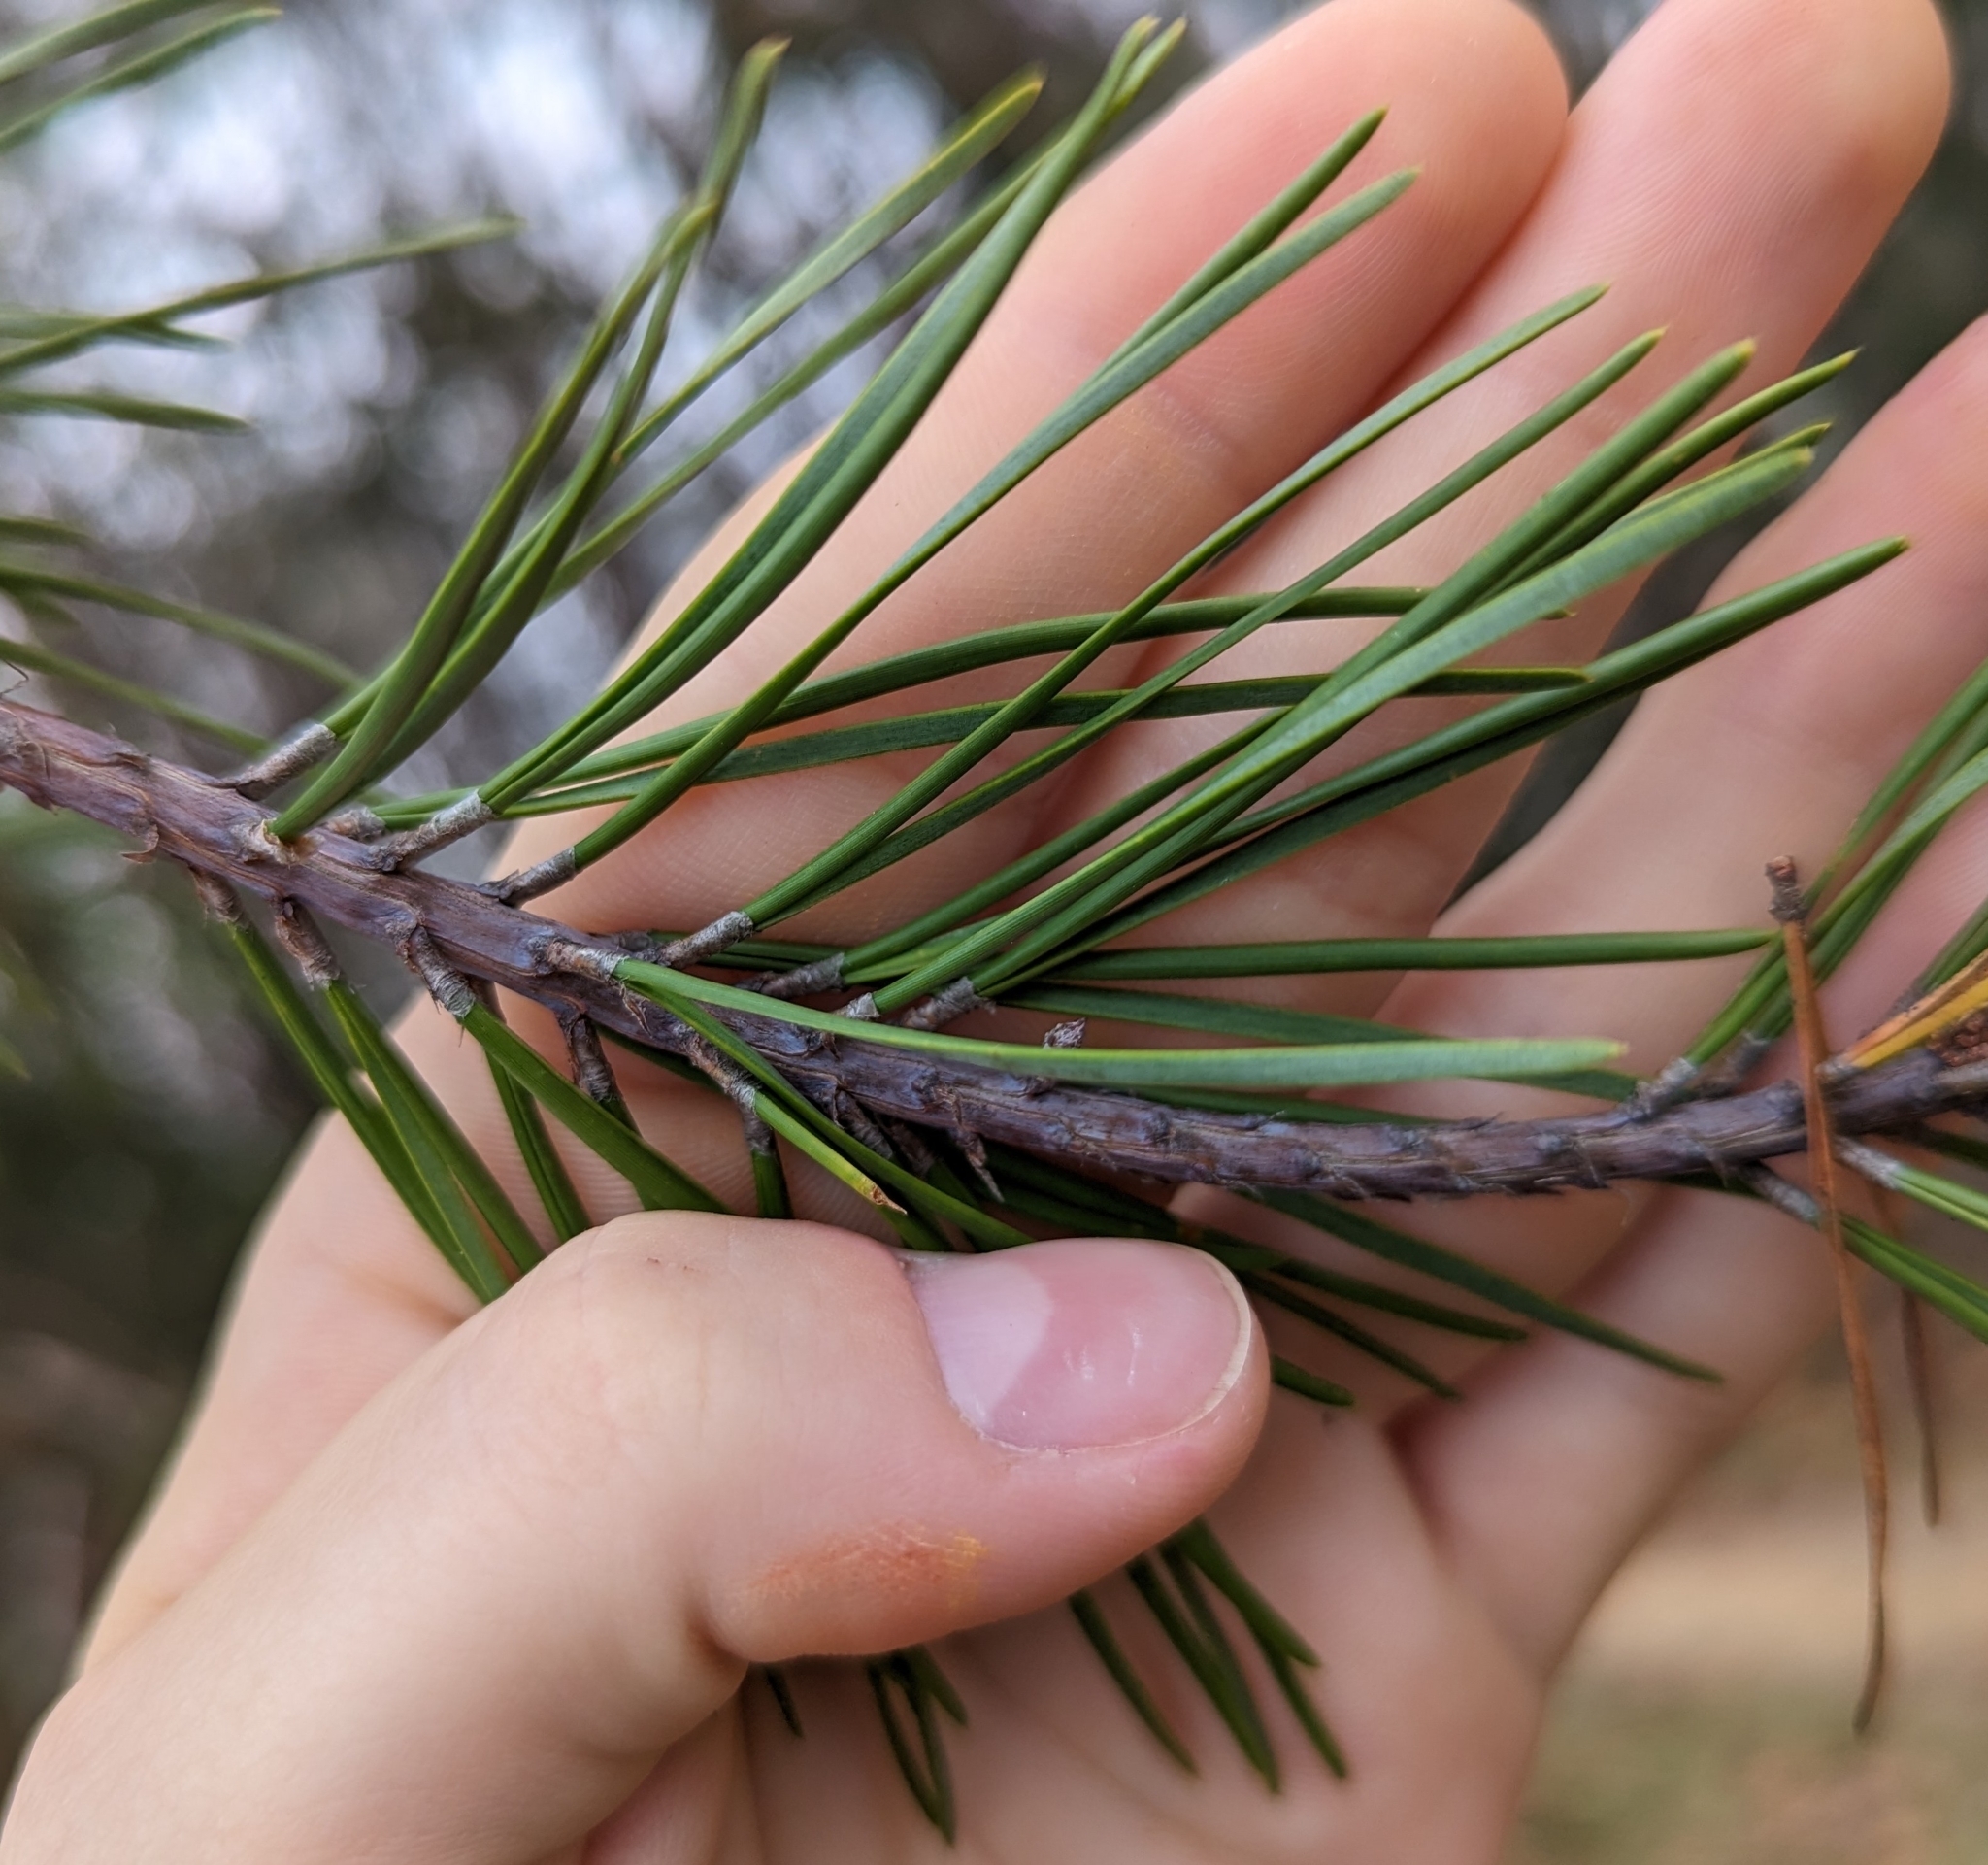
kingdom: Plantae
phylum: Tracheophyta
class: Pinopsida
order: Pinales
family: Pinaceae
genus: Pinus
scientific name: Pinus virginiana
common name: Scrub pine
